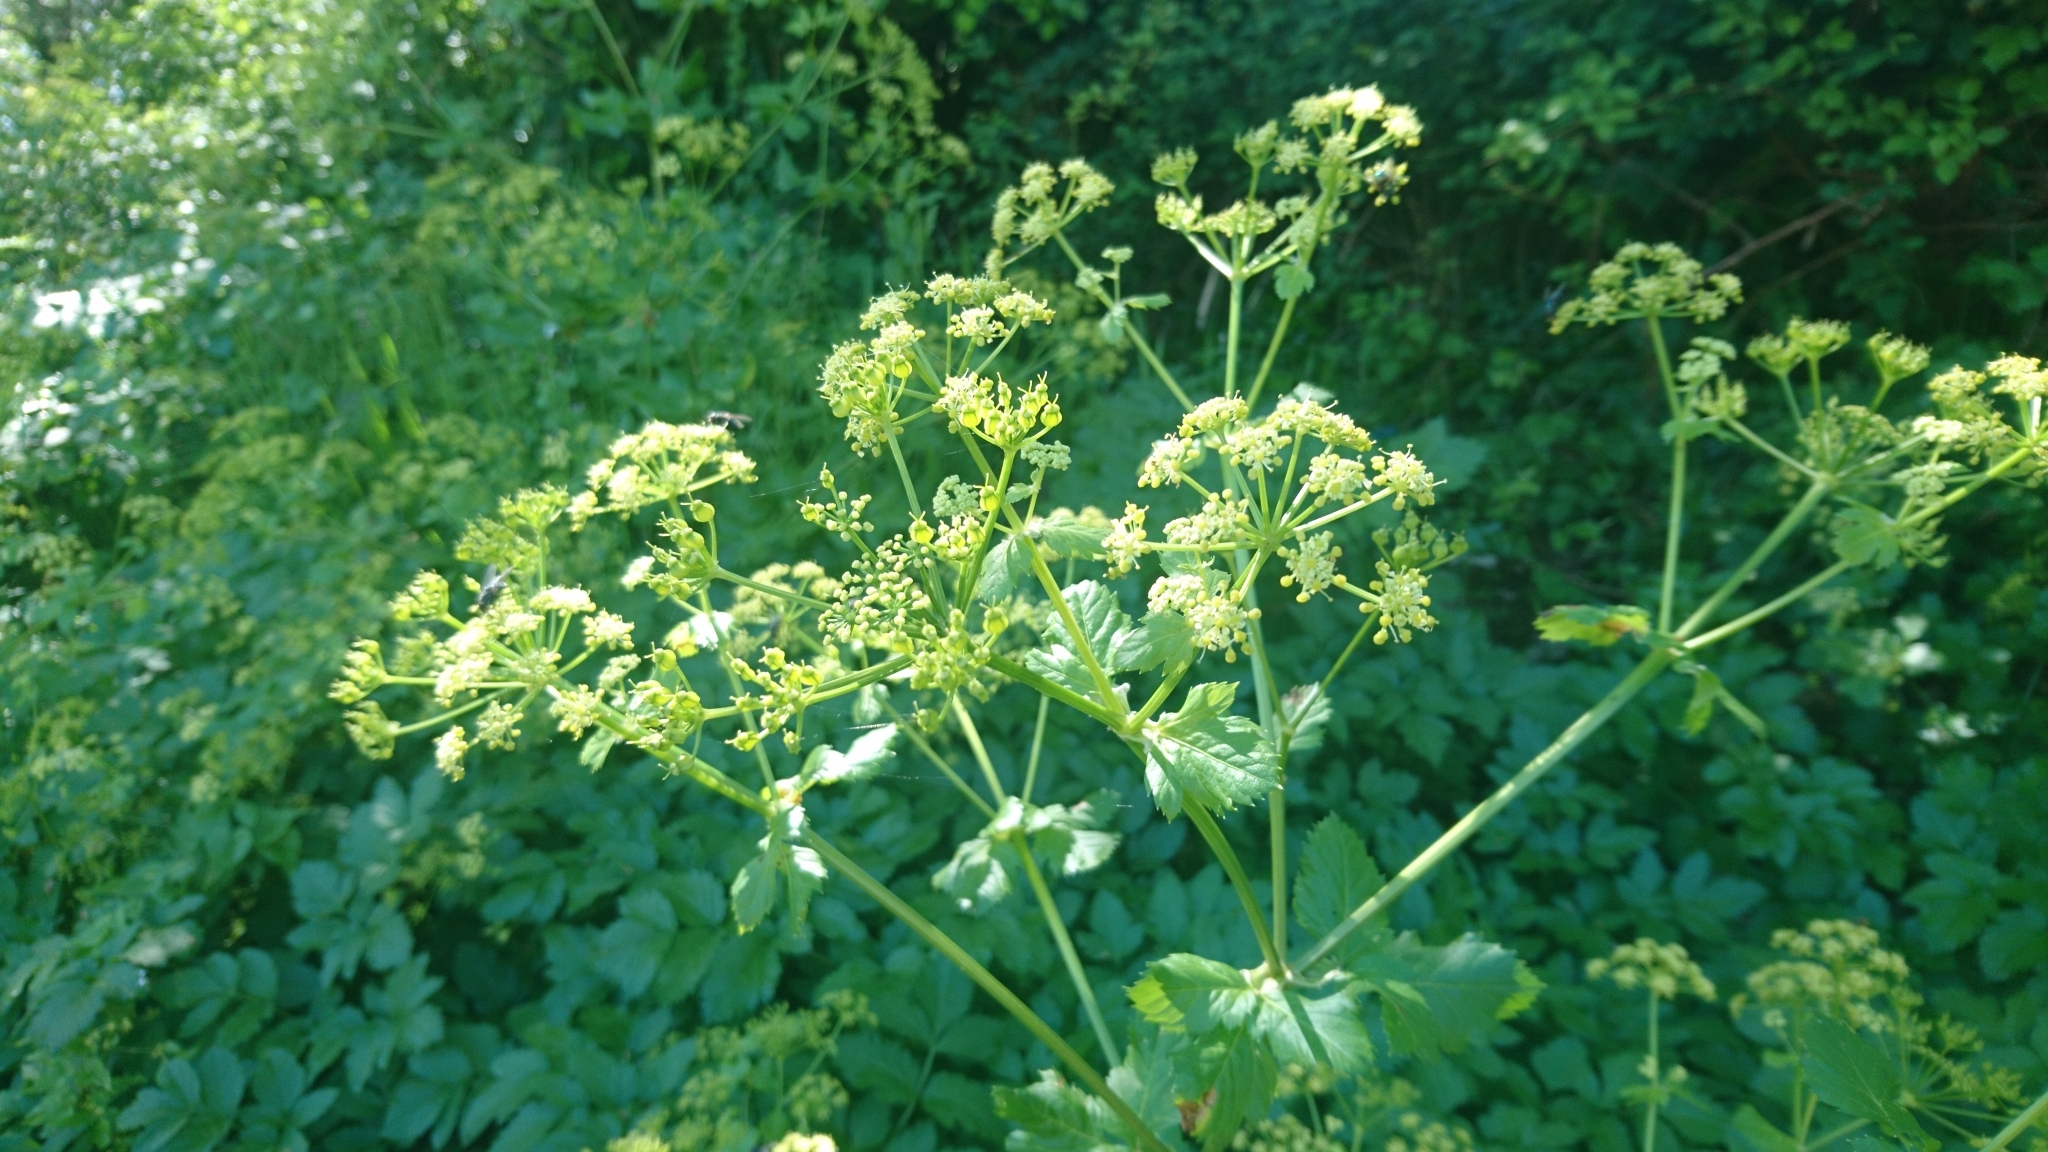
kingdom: Plantae
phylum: Tracheophyta
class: Magnoliopsida
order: Apiales
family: Apiaceae
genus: Smyrnium
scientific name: Smyrnium olusatrum
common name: Alexanders
